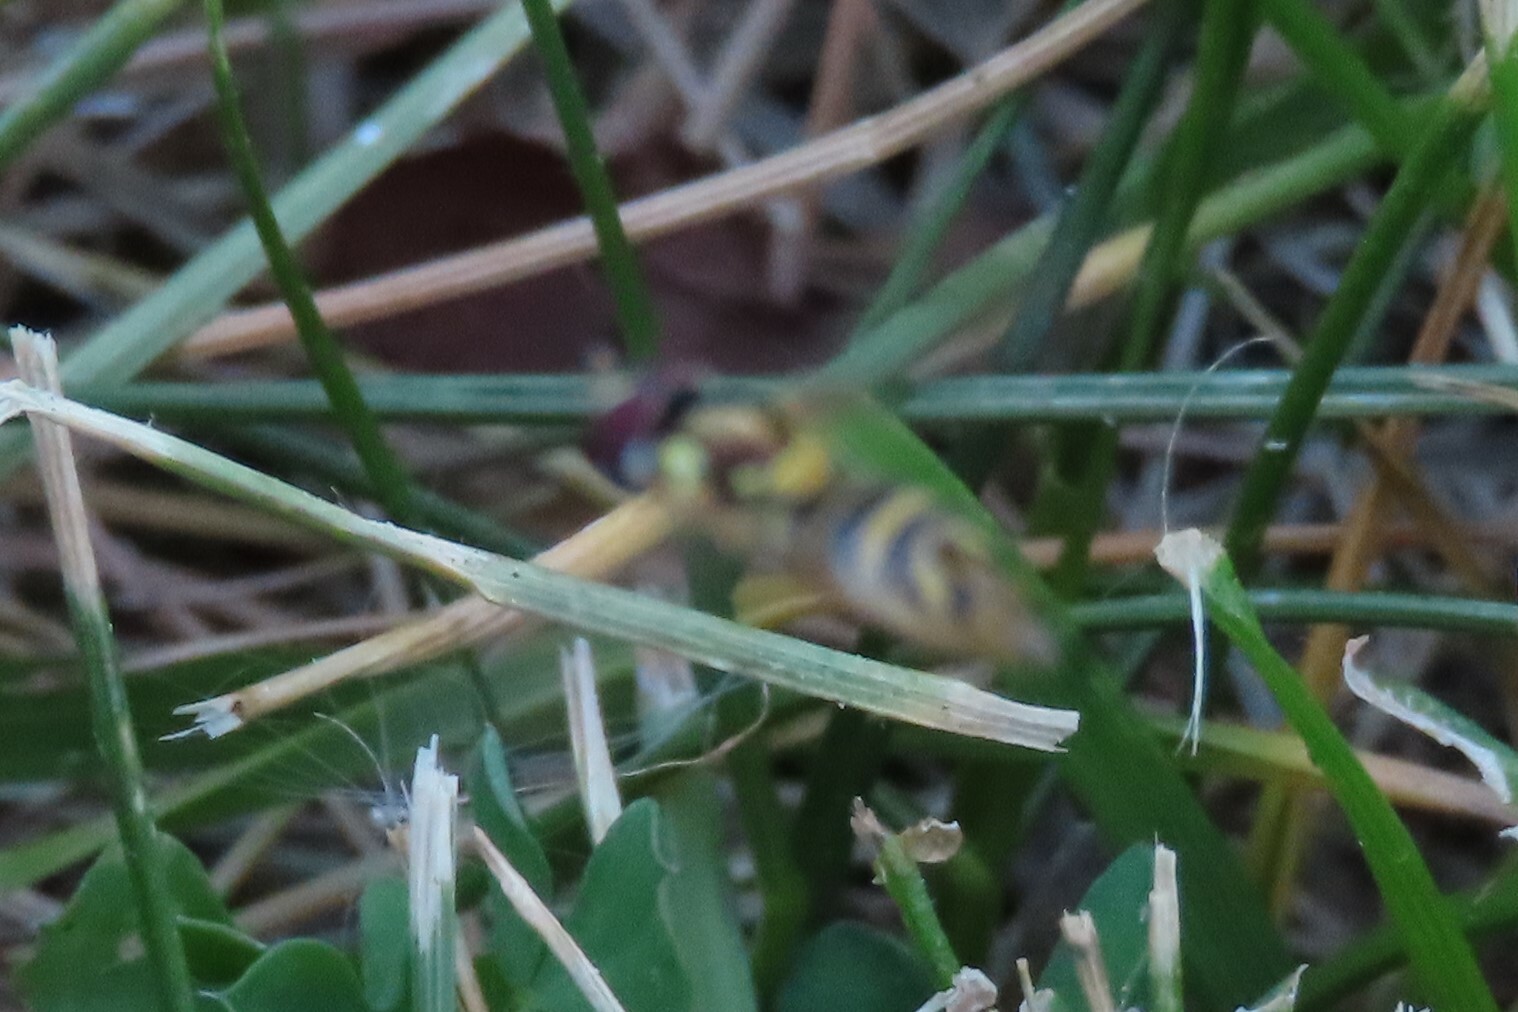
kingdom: Animalia
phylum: Arthropoda
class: Insecta
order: Diptera
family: Syrphidae
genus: Allograpta
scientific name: Allograpta
